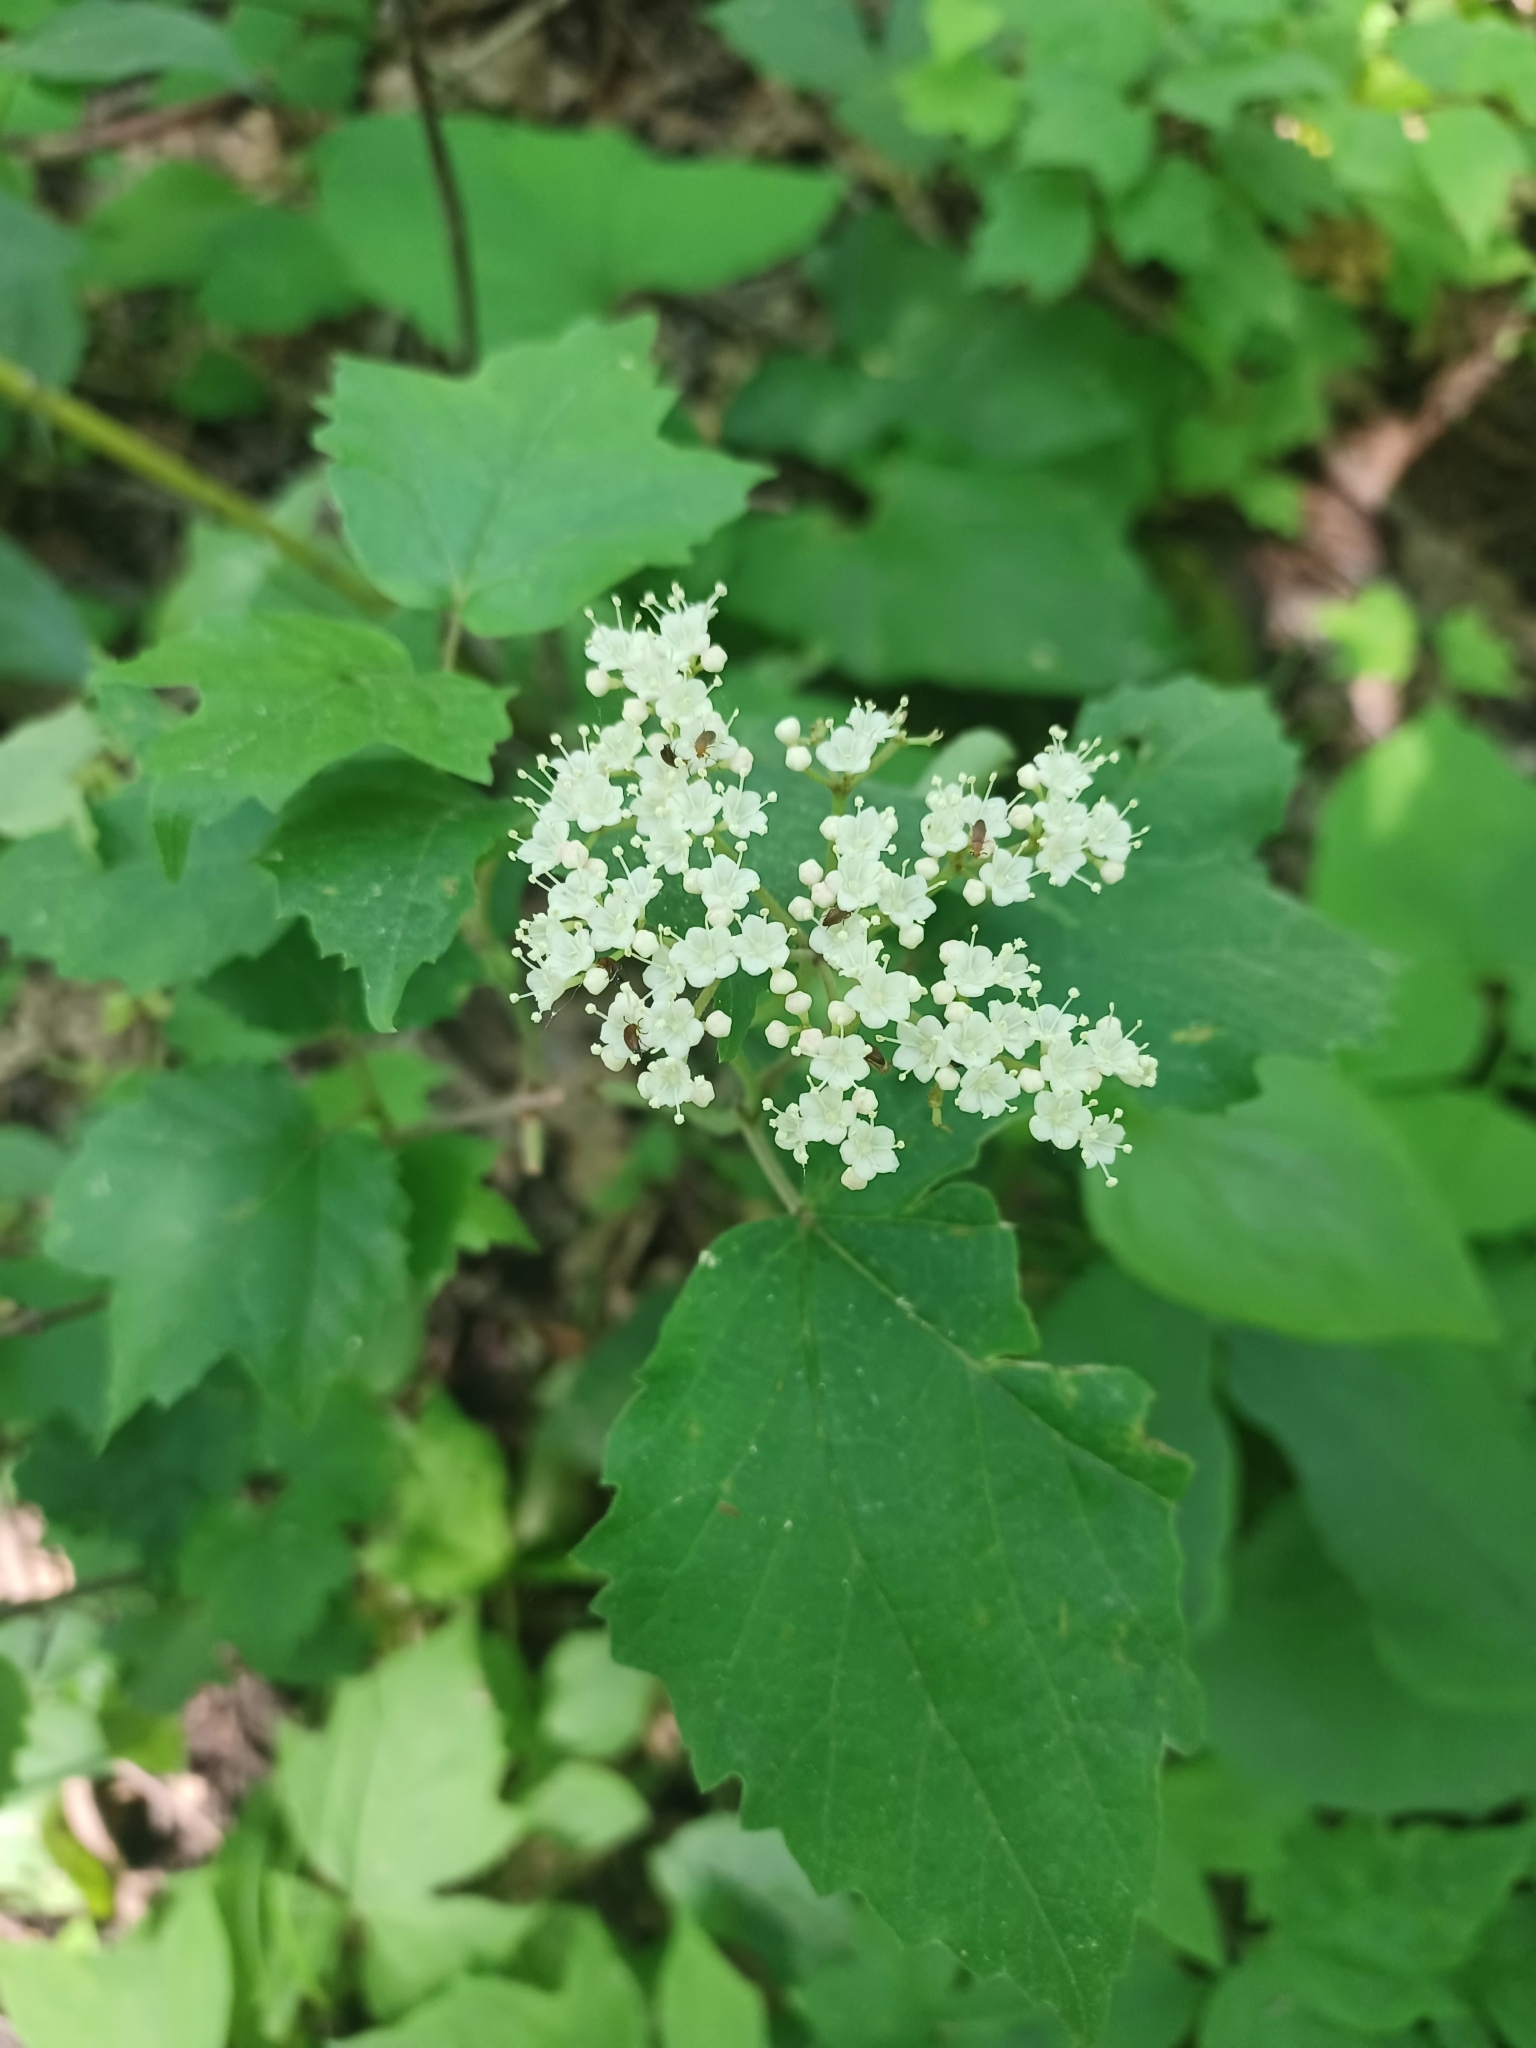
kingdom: Plantae
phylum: Tracheophyta
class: Magnoliopsida
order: Dipsacales
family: Viburnaceae
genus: Viburnum
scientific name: Viburnum acerifolium
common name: Dockmackie
